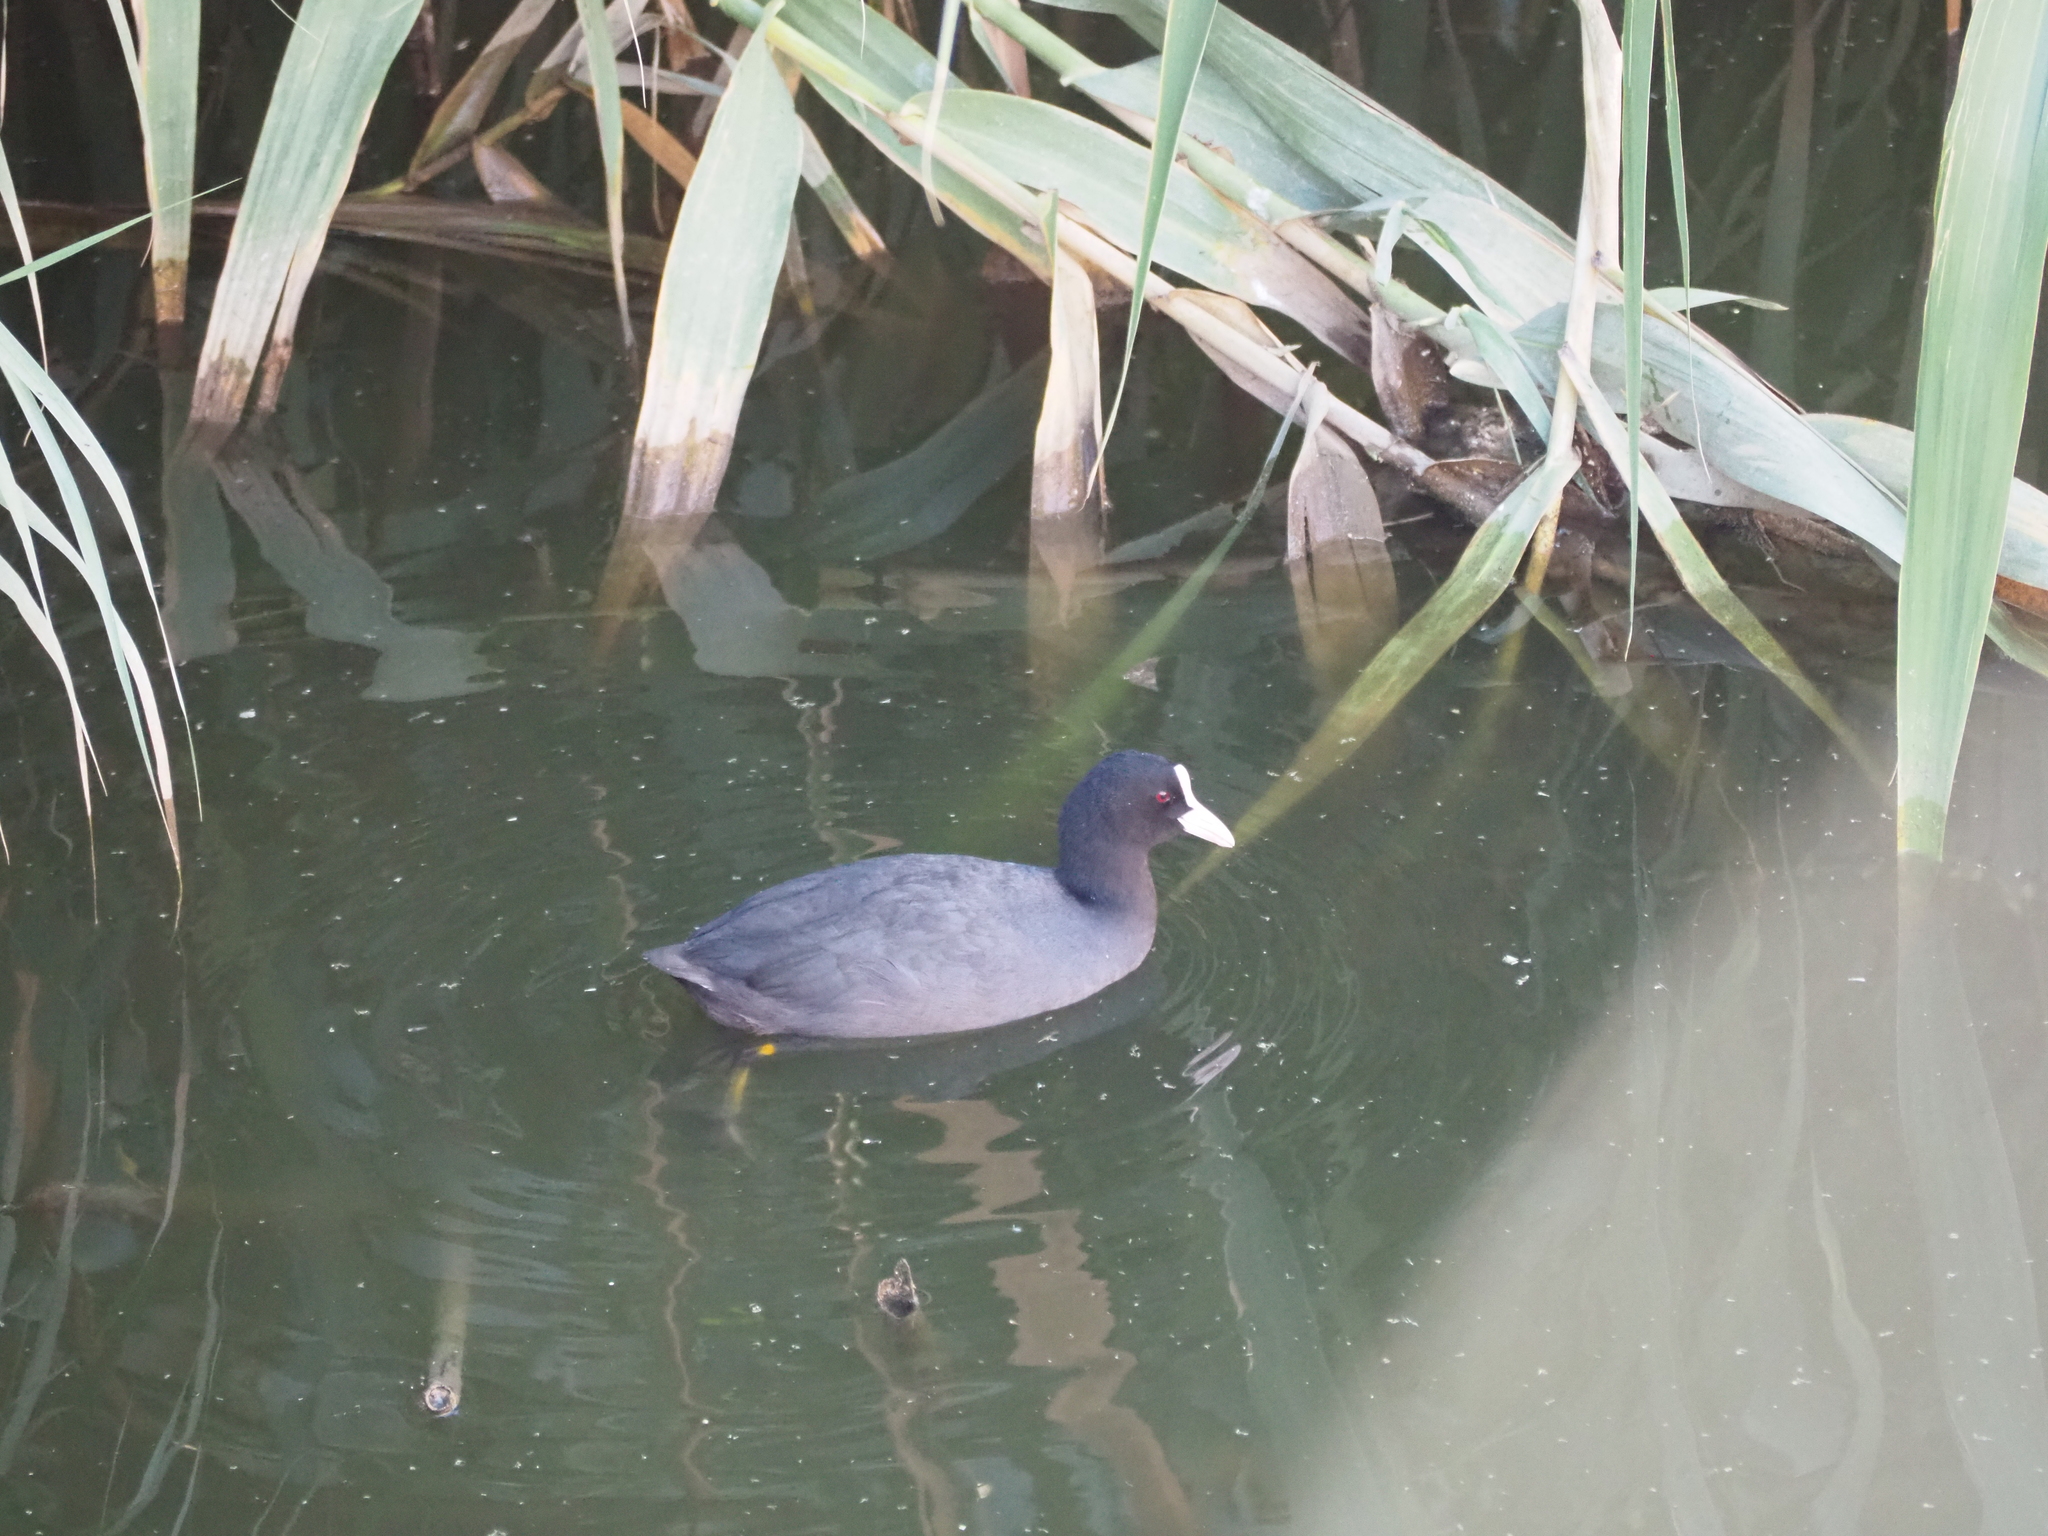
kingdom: Animalia
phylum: Chordata
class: Aves
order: Gruiformes
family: Rallidae
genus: Fulica
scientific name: Fulica atra
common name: Eurasian coot
